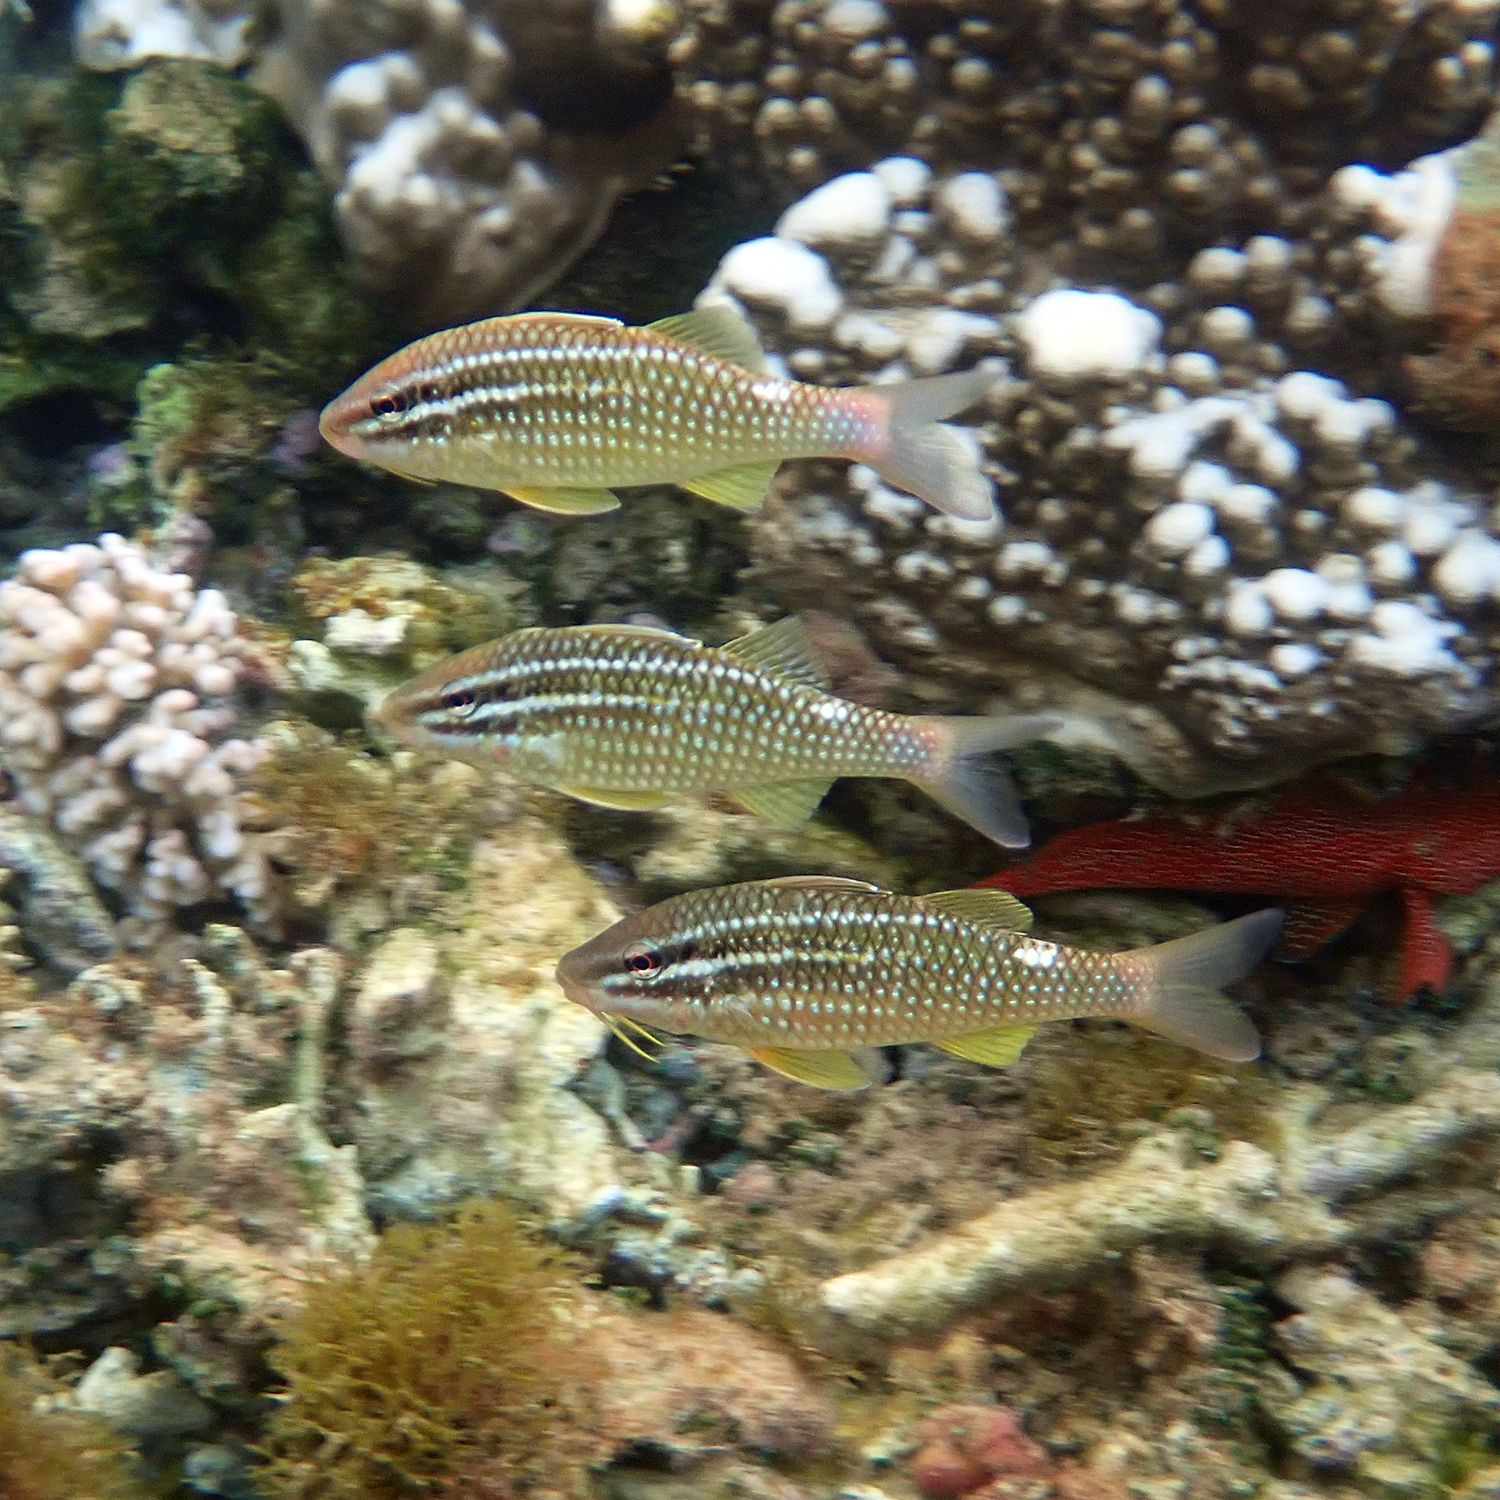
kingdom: Animalia
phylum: Chordata
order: Perciformes
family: Mullidae
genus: Parupeneus
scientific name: Parupeneus ciliatus
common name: White-lined goatfish
